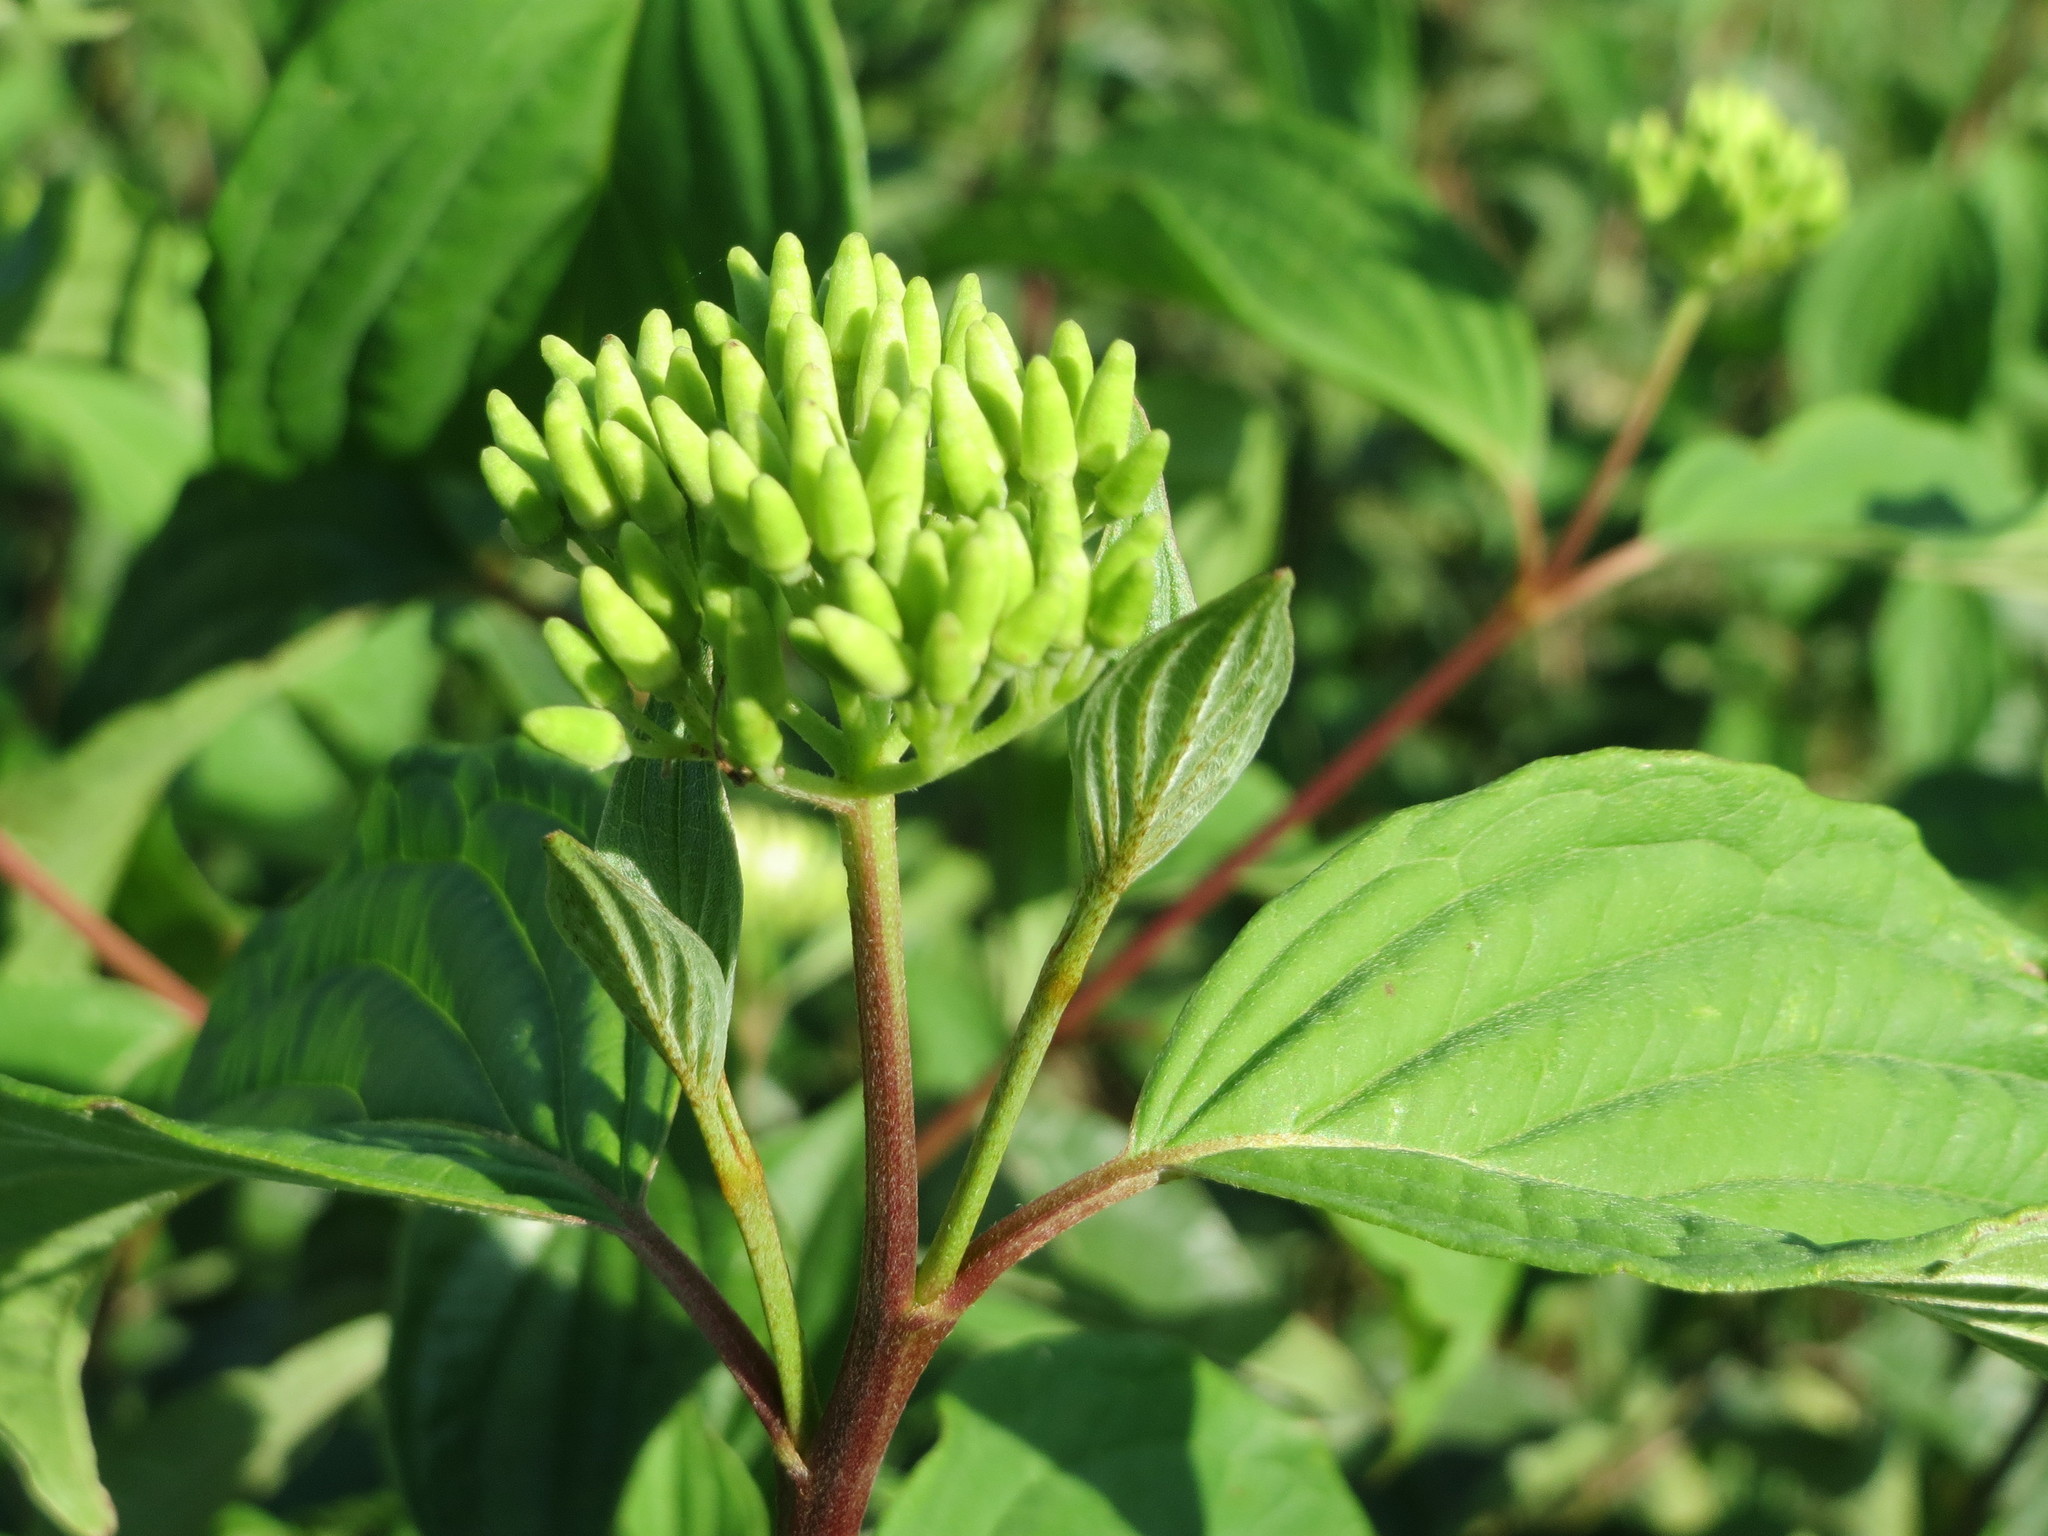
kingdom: Plantae
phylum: Tracheophyta
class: Magnoliopsida
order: Cornales
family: Cornaceae
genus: Cornus
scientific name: Cornus sanguinea
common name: Dogwood
